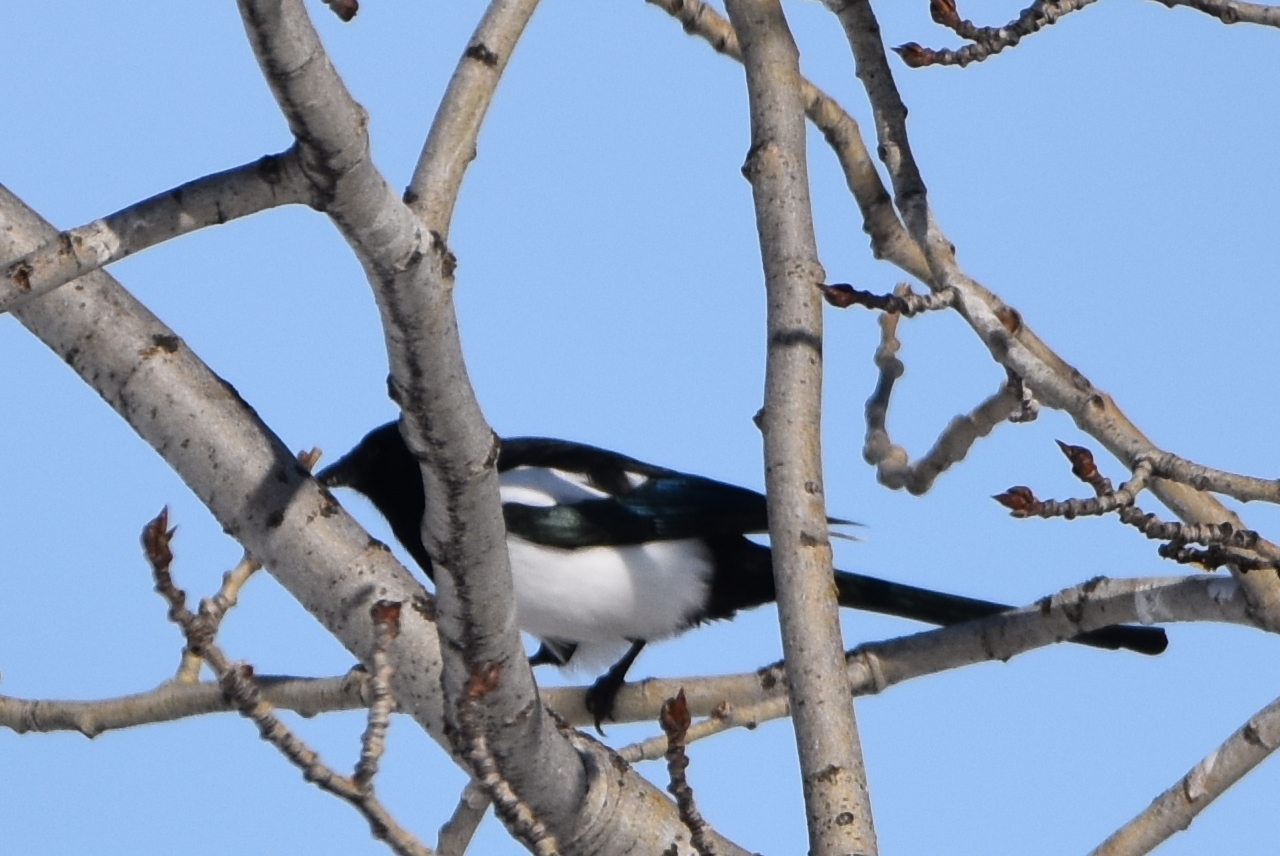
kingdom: Animalia
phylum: Chordata
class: Aves
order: Passeriformes
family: Corvidae
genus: Pica
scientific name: Pica pica
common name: Eurasian magpie
